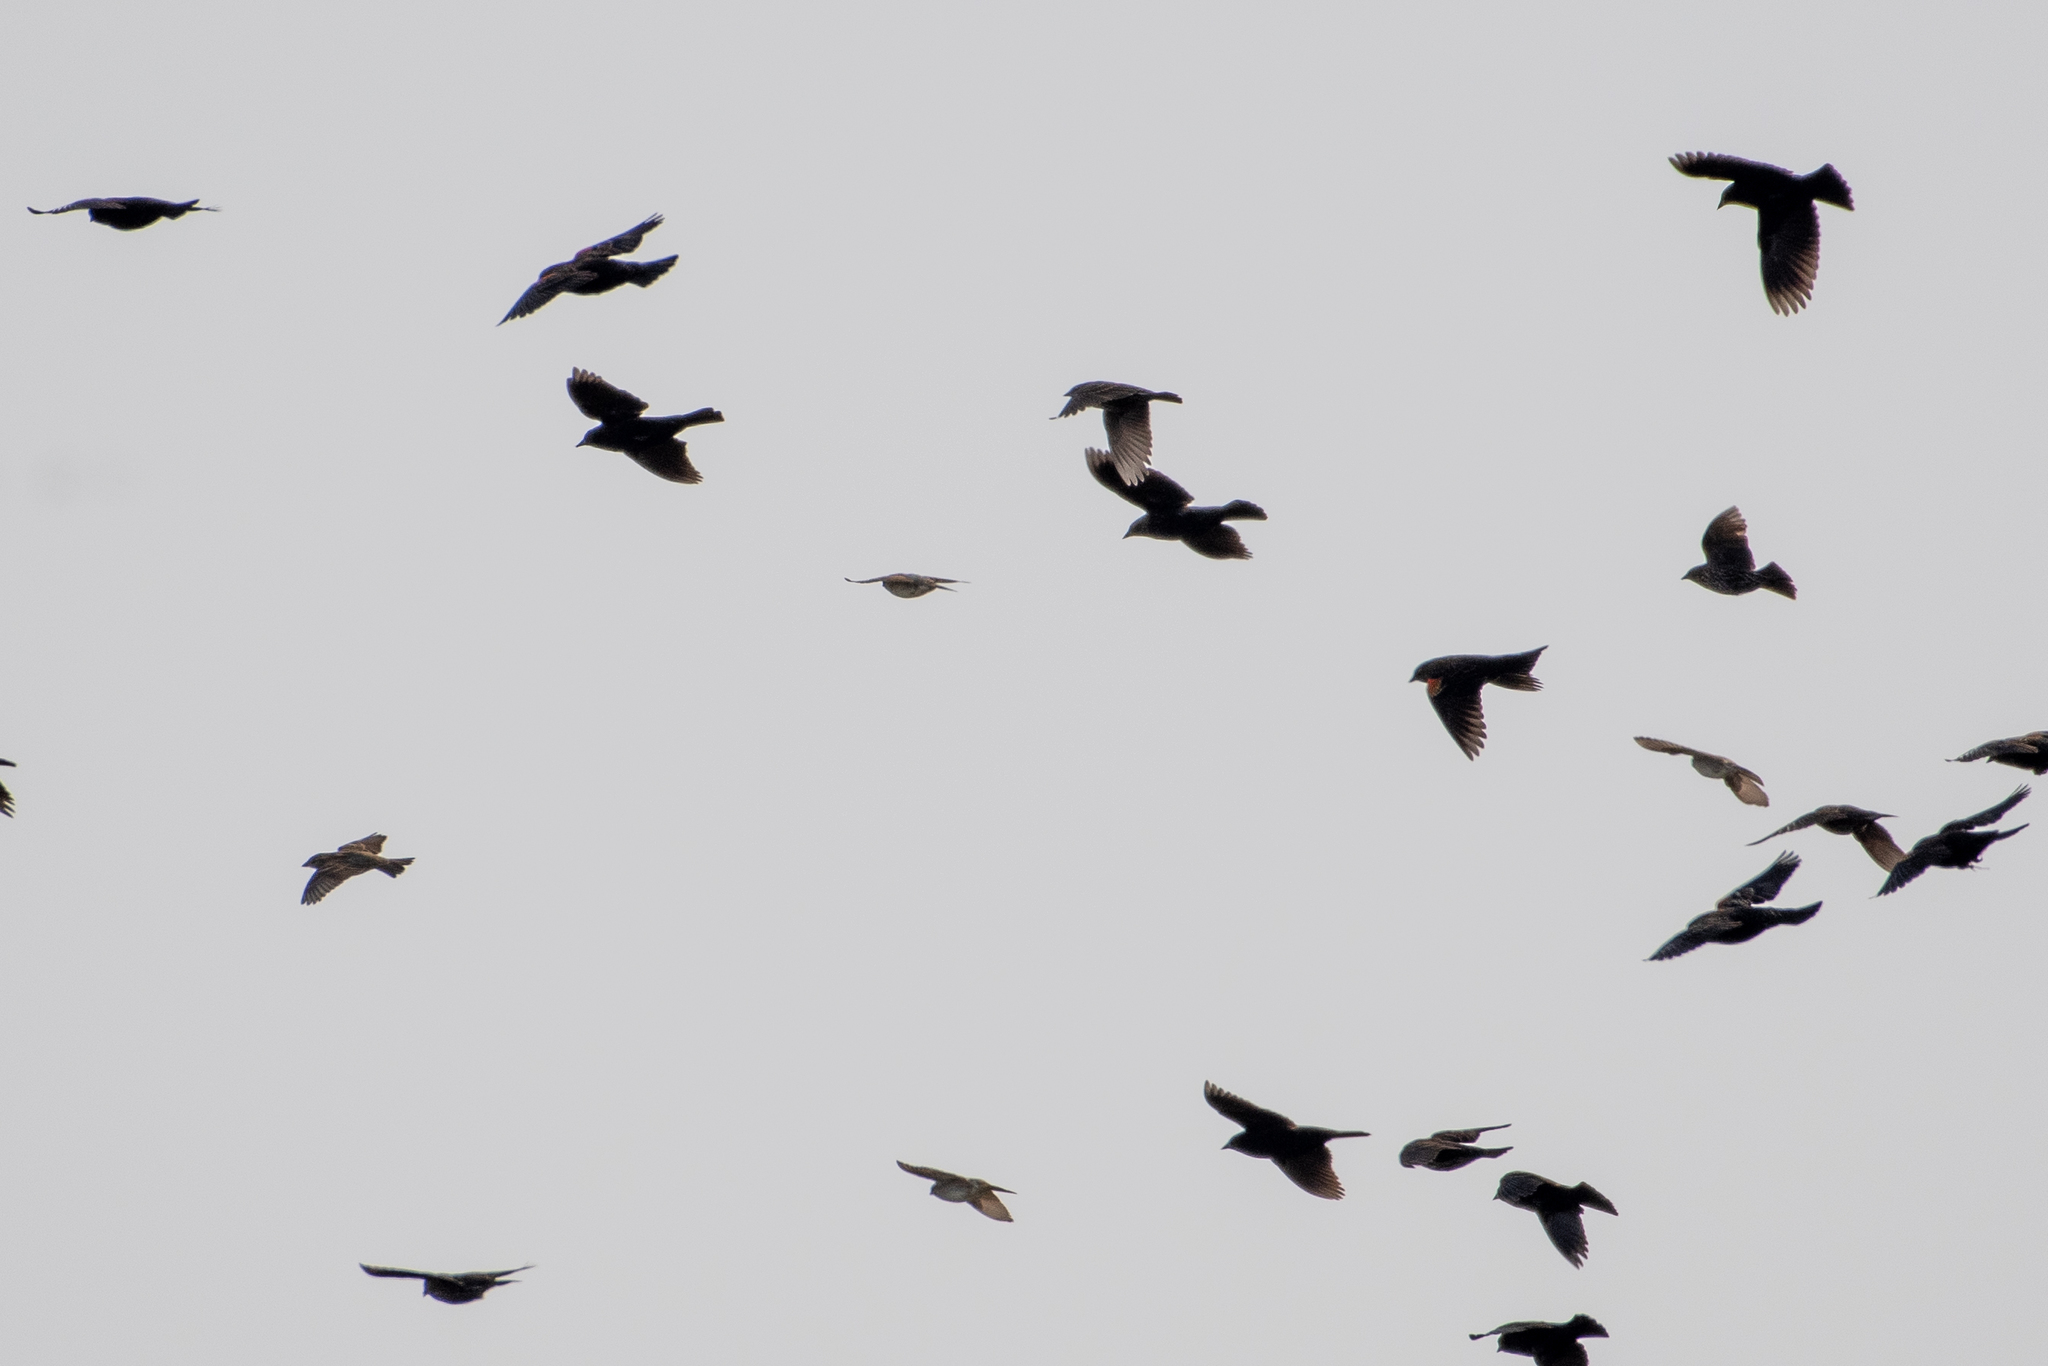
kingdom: Animalia
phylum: Chordata
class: Aves
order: Passeriformes
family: Icteridae
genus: Agelaius
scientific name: Agelaius phoeniceus
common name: Red-winged blackbird
